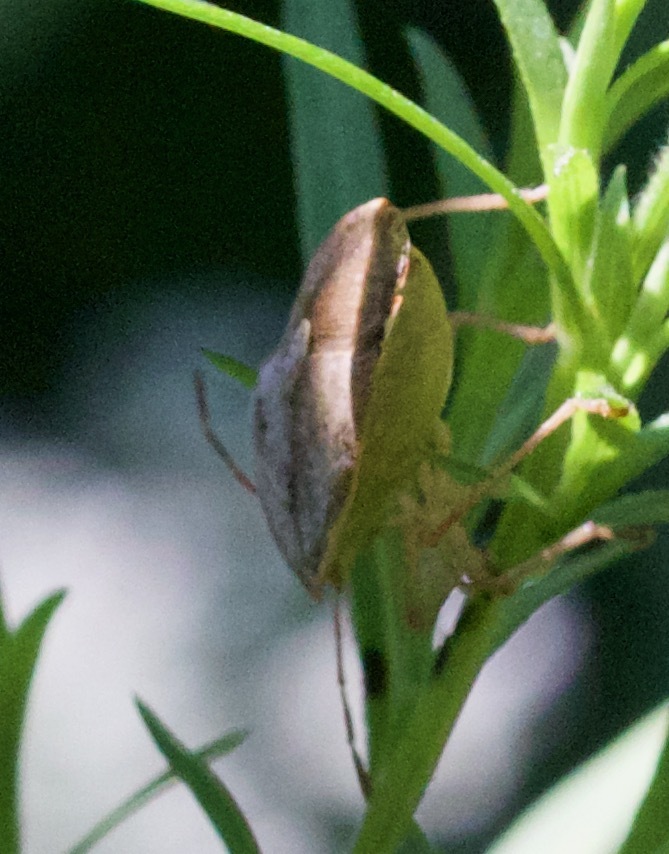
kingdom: Animalia
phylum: Arthropoda
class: Insecta
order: Hemiptera
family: Pentatomidae
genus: Euschistus
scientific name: Euschistus servus
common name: Brown stink bug
